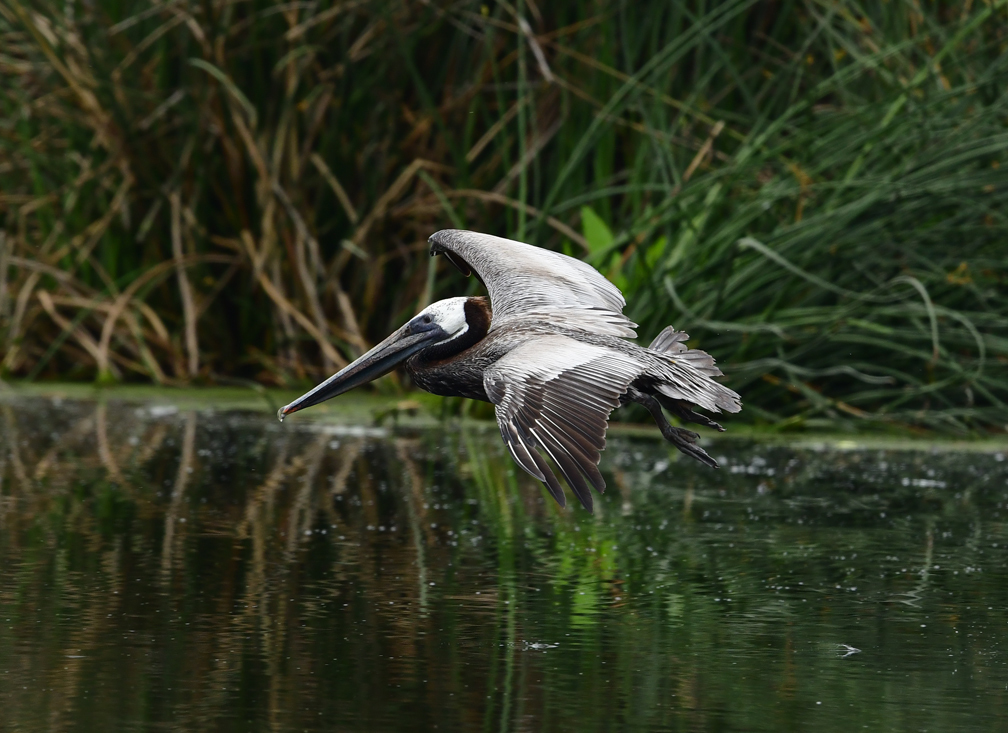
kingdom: Animalia
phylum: Chordata
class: Aves
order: Pelecaniformes
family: Pelecanidae
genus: Pelecanus
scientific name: Pelecanus occidentalis
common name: Brown pelican
